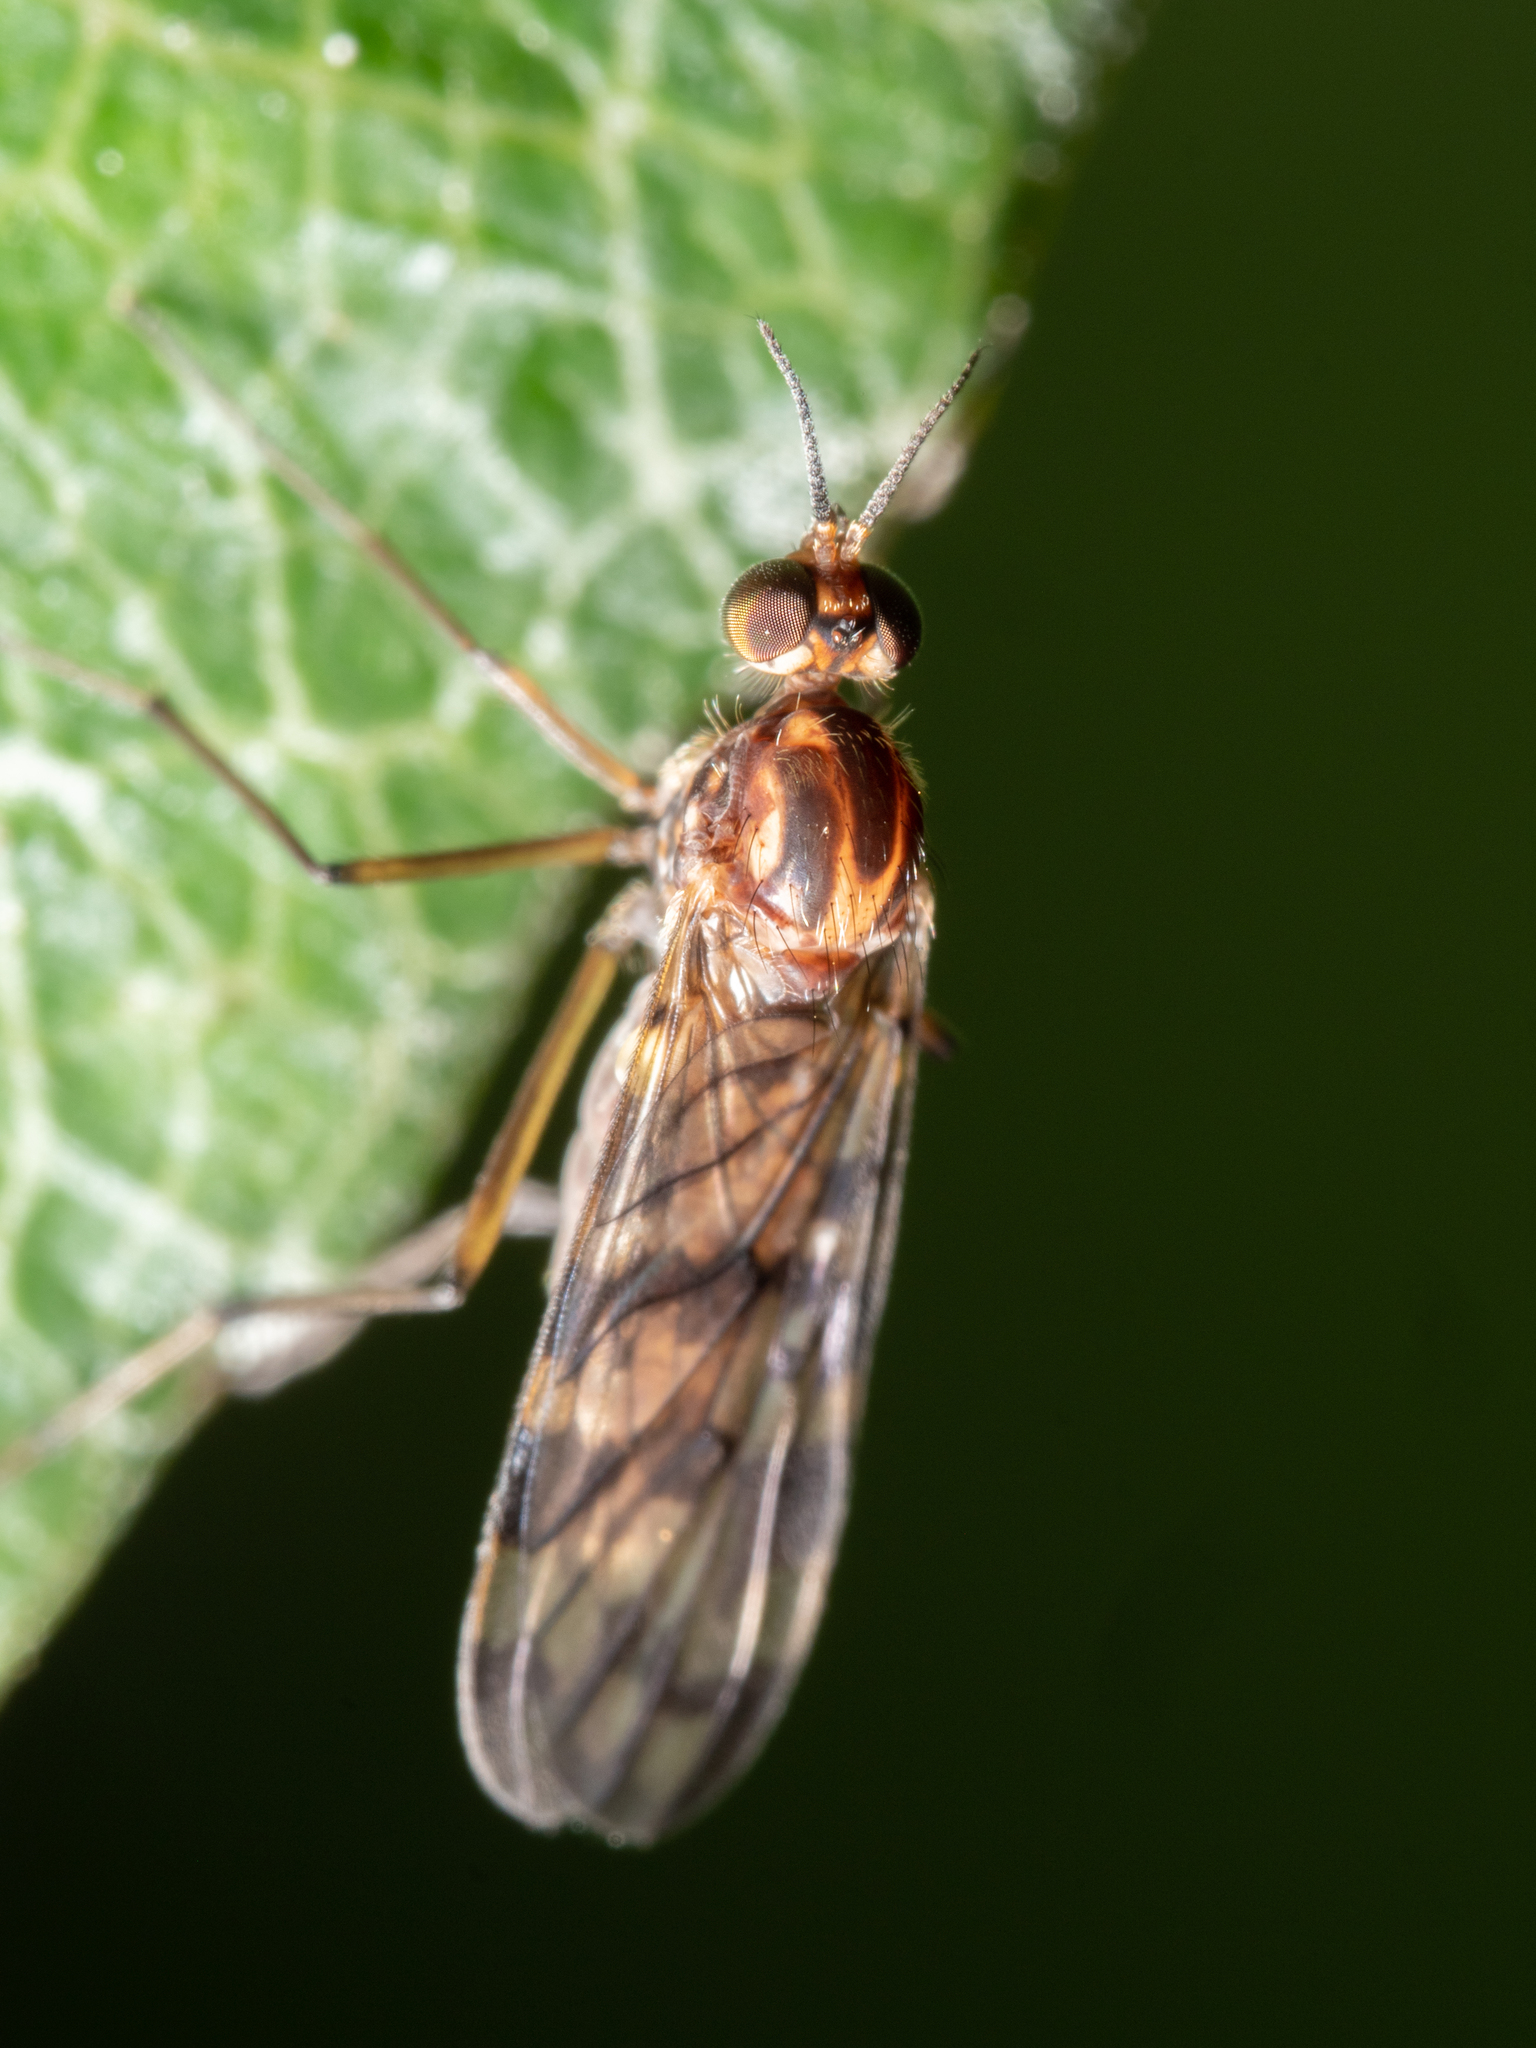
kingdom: Animalia
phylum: Arthropoda
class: Insecta
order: Diptera
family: Anisopodidae
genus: Sylvicola
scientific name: Sylvicola dubius
